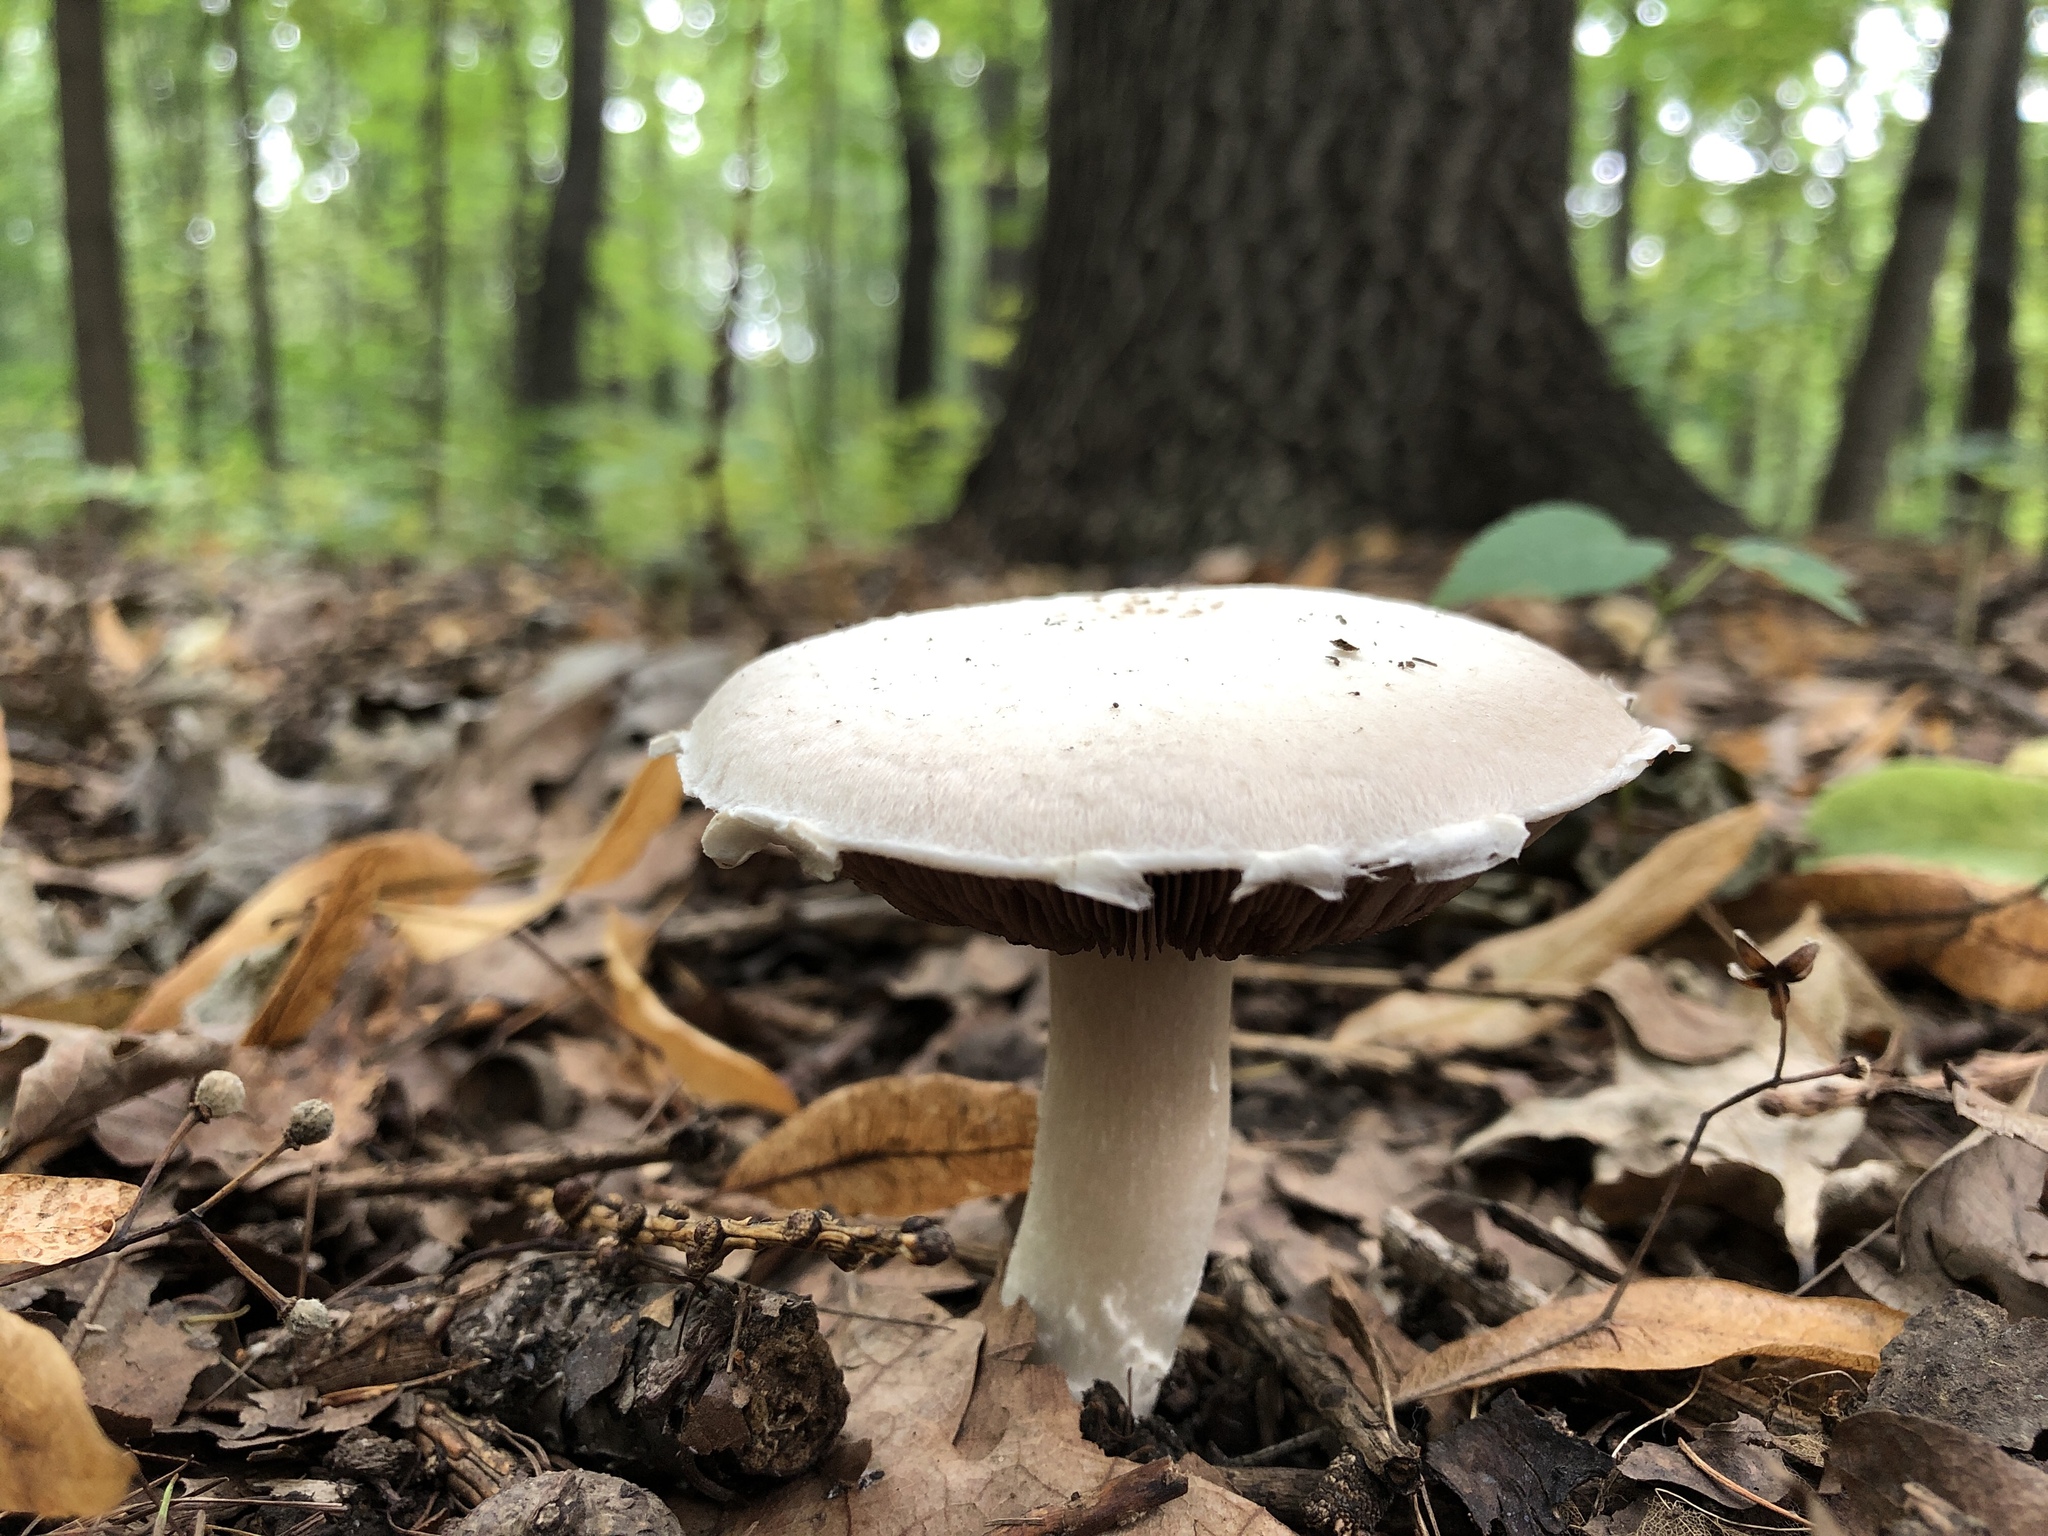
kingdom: Fungi
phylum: Basidiomycota
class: Agaricomycetes
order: Agaricales
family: Agaricaceae
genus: Agaricus
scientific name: Agaricus campestris
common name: Field mushroom
